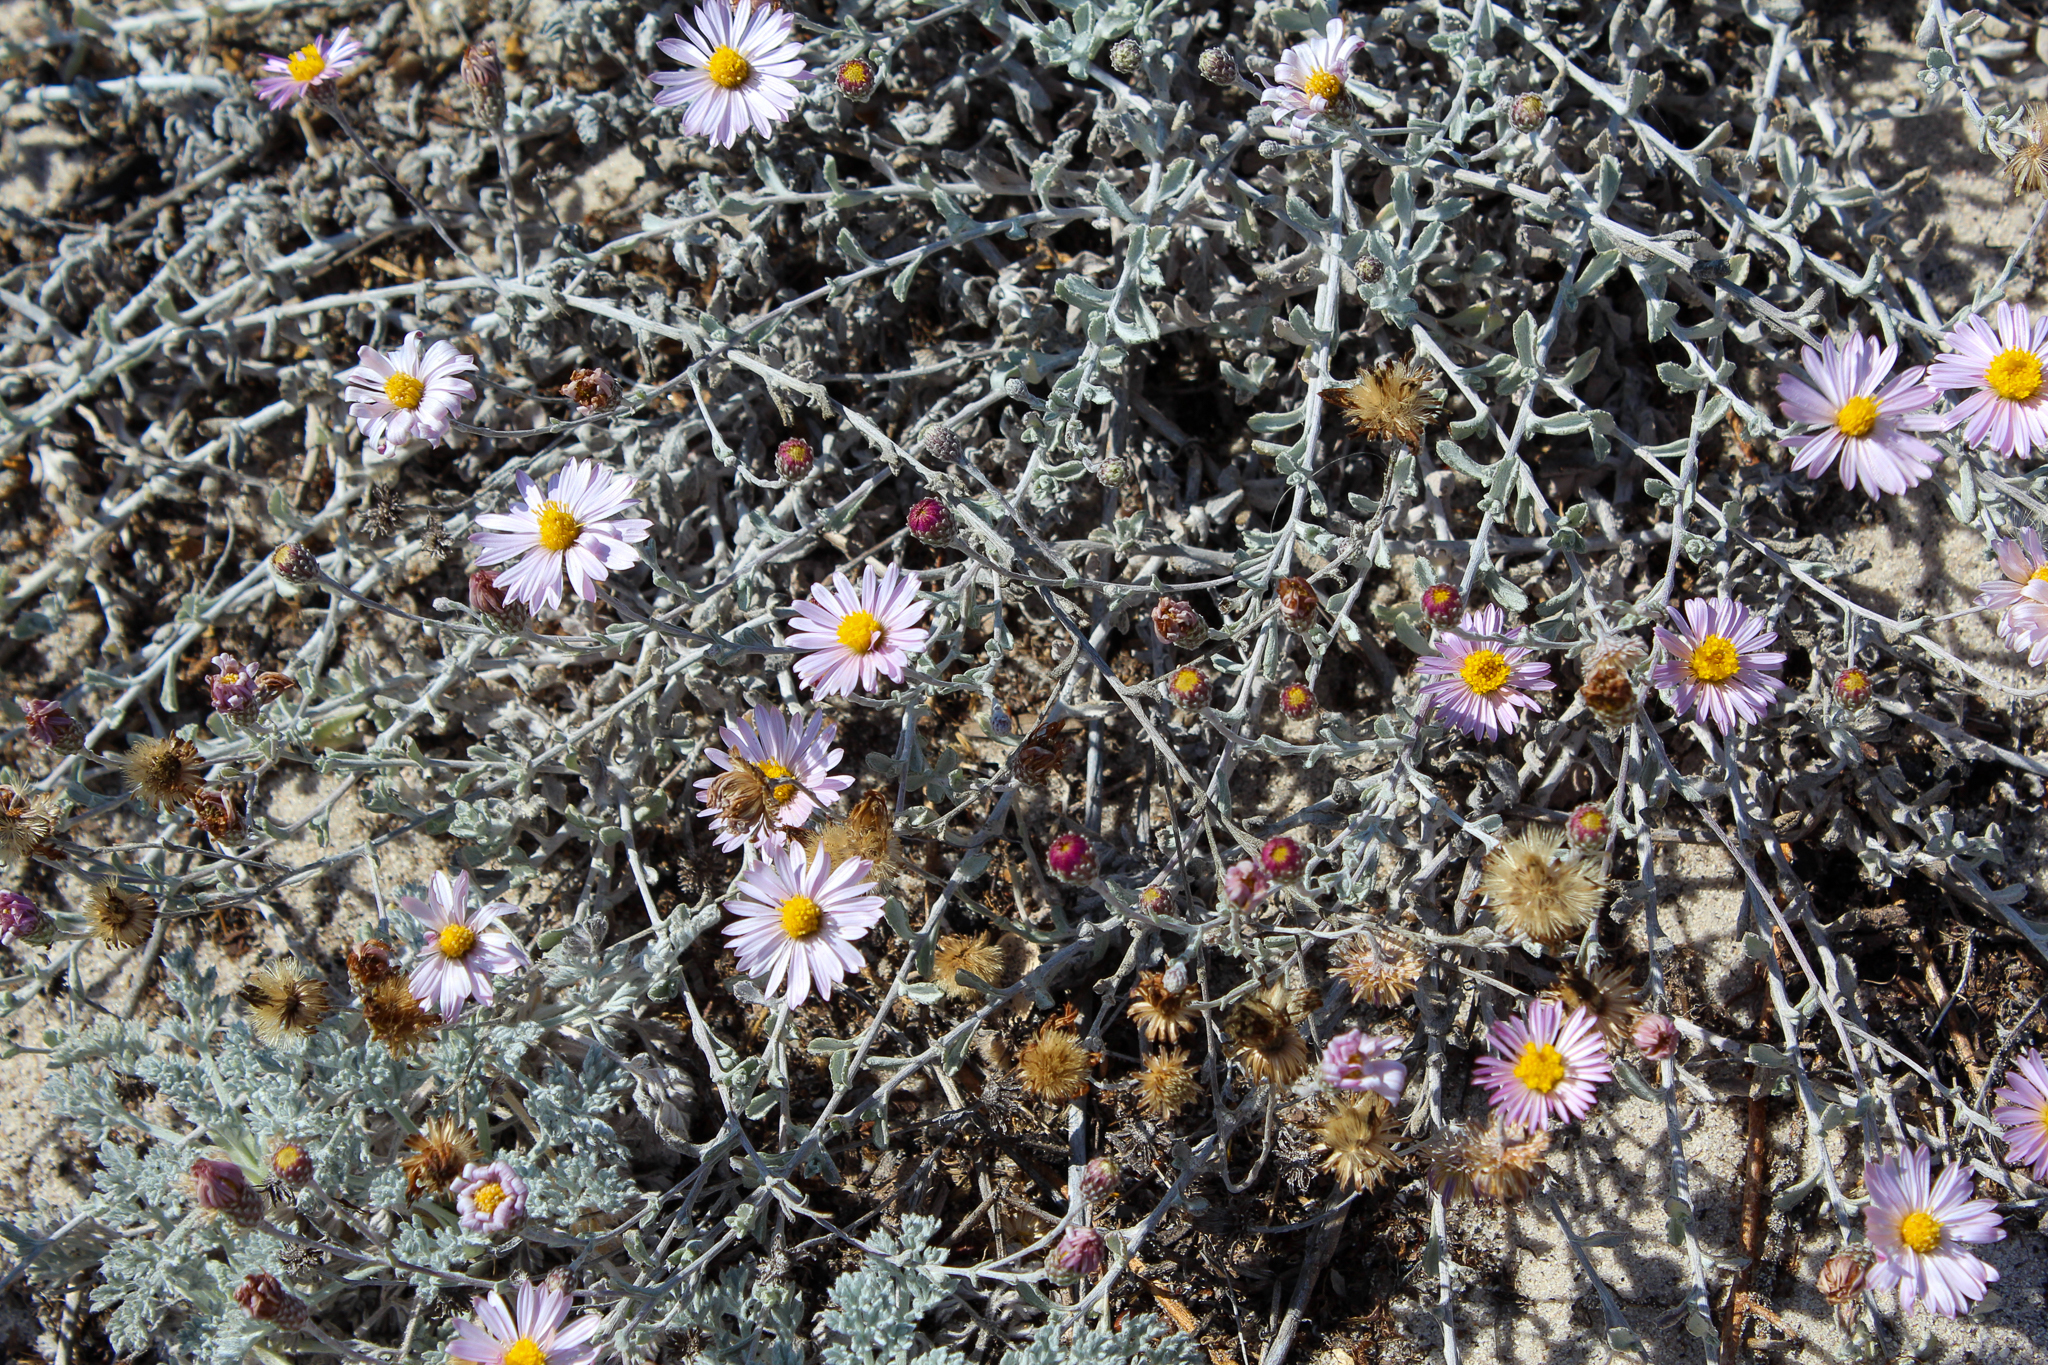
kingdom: Plantae
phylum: Tracheophyta
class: Magnoliopsida
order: Asterales
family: Asteraceae
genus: Corethrogyne
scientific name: Corethrogyne filaginifolia
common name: Sand-aster
